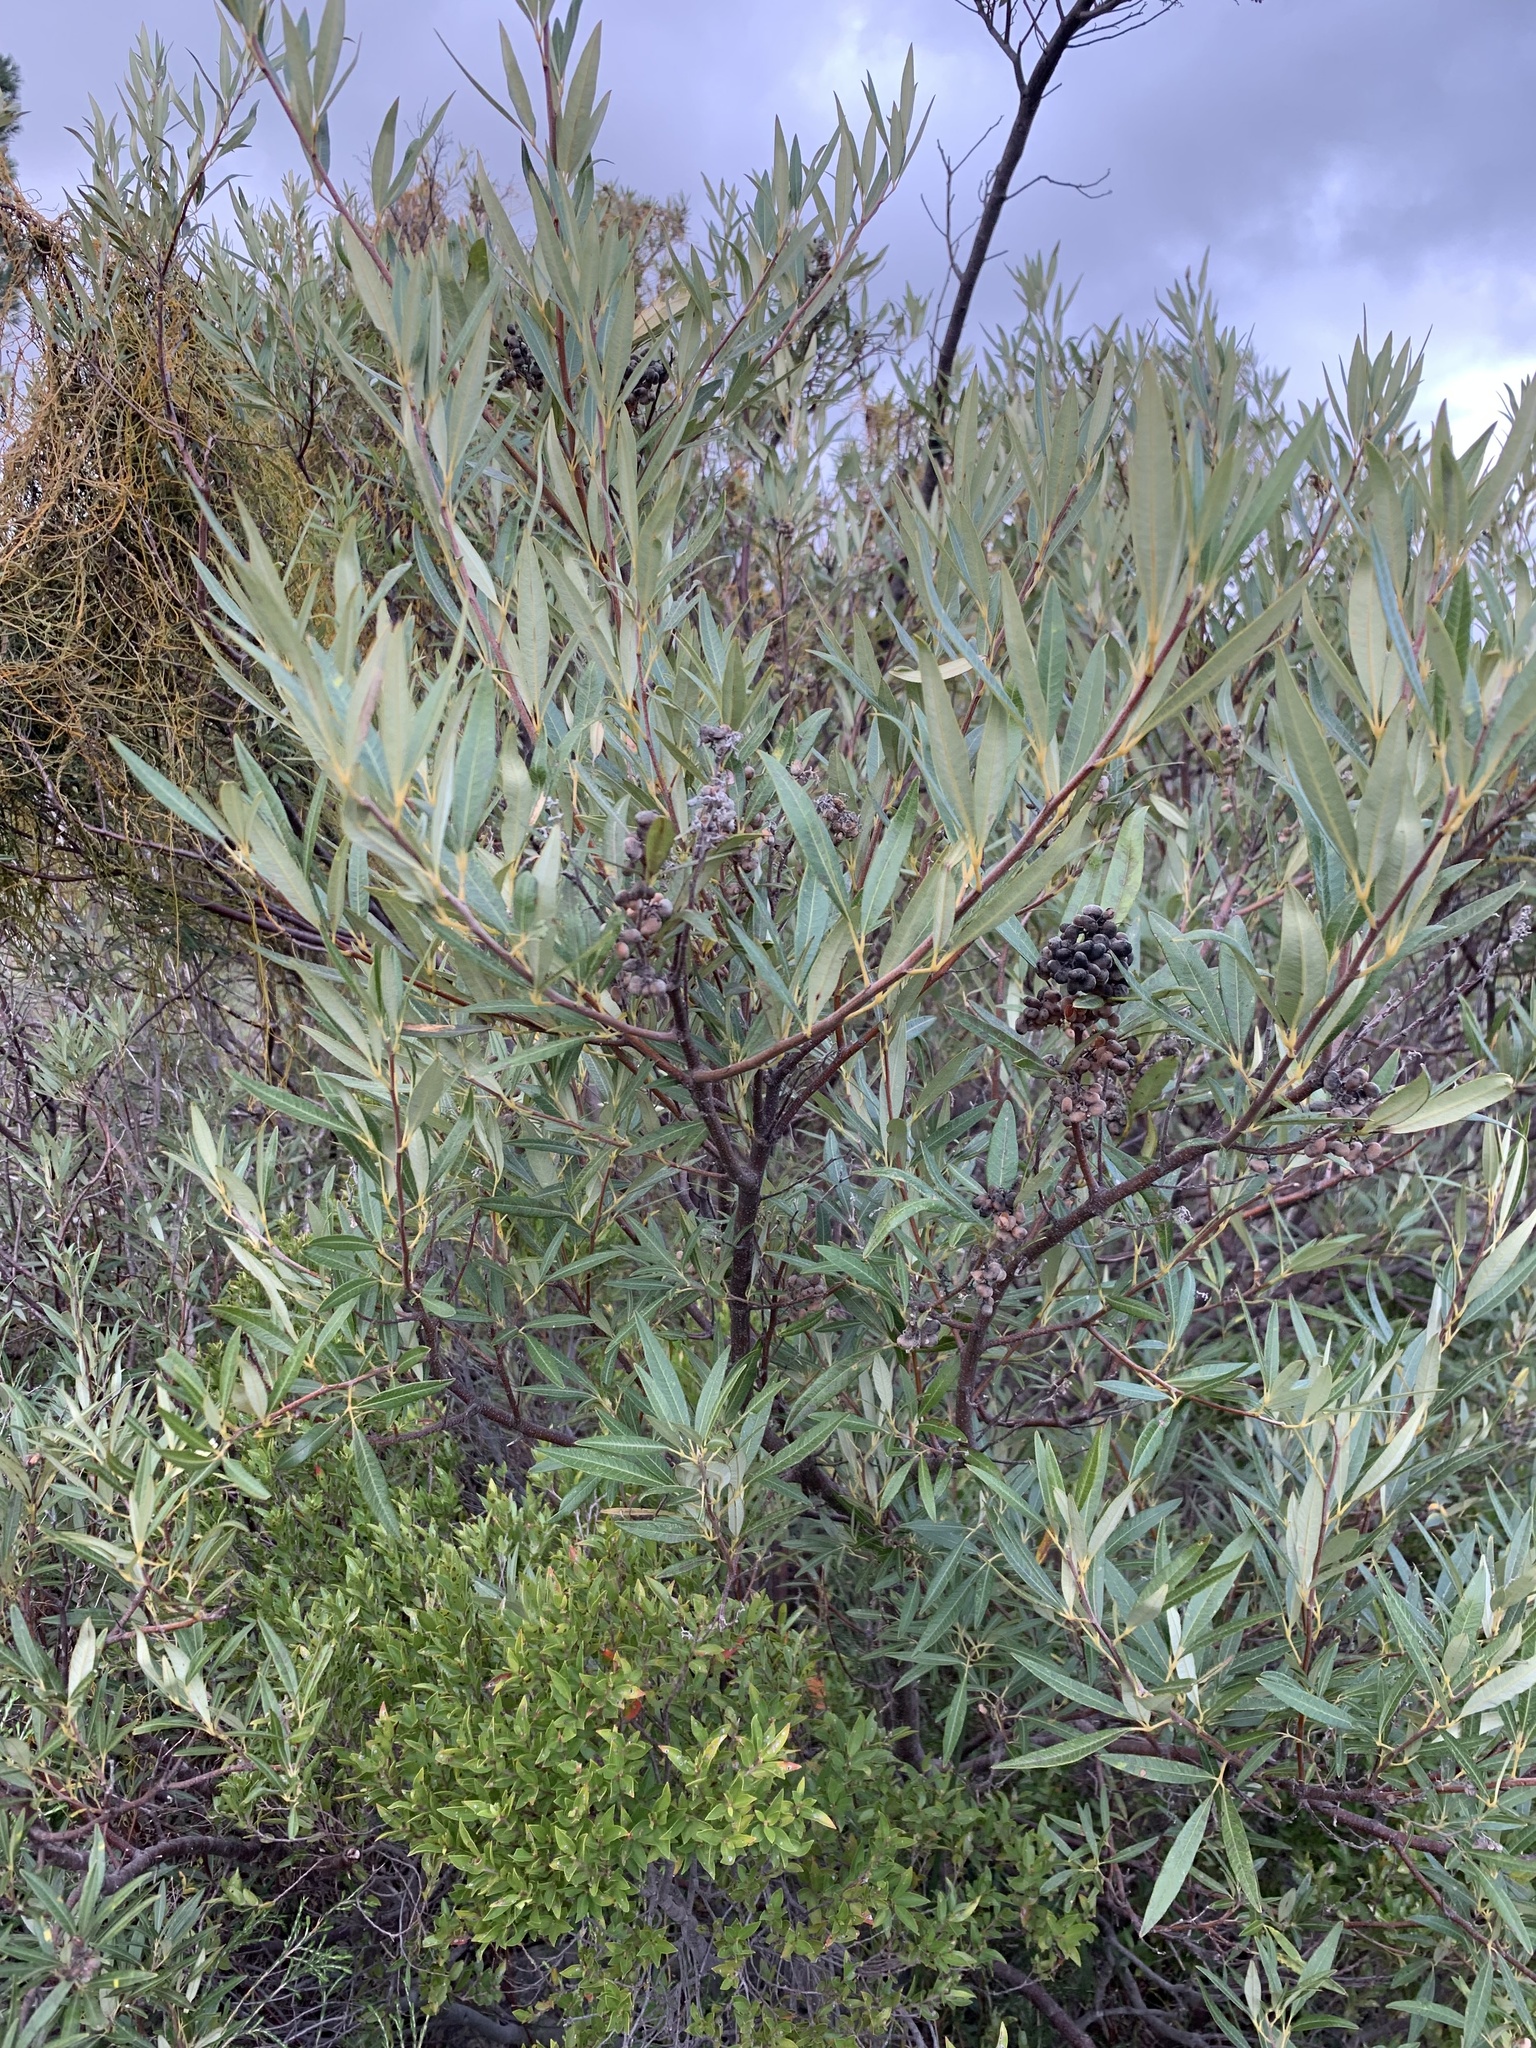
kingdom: Plantae
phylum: Tracheophyta
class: Magnoliopsida
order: Sapindales
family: Anacardiaceae
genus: Searsia
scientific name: Searsia angustifolia
